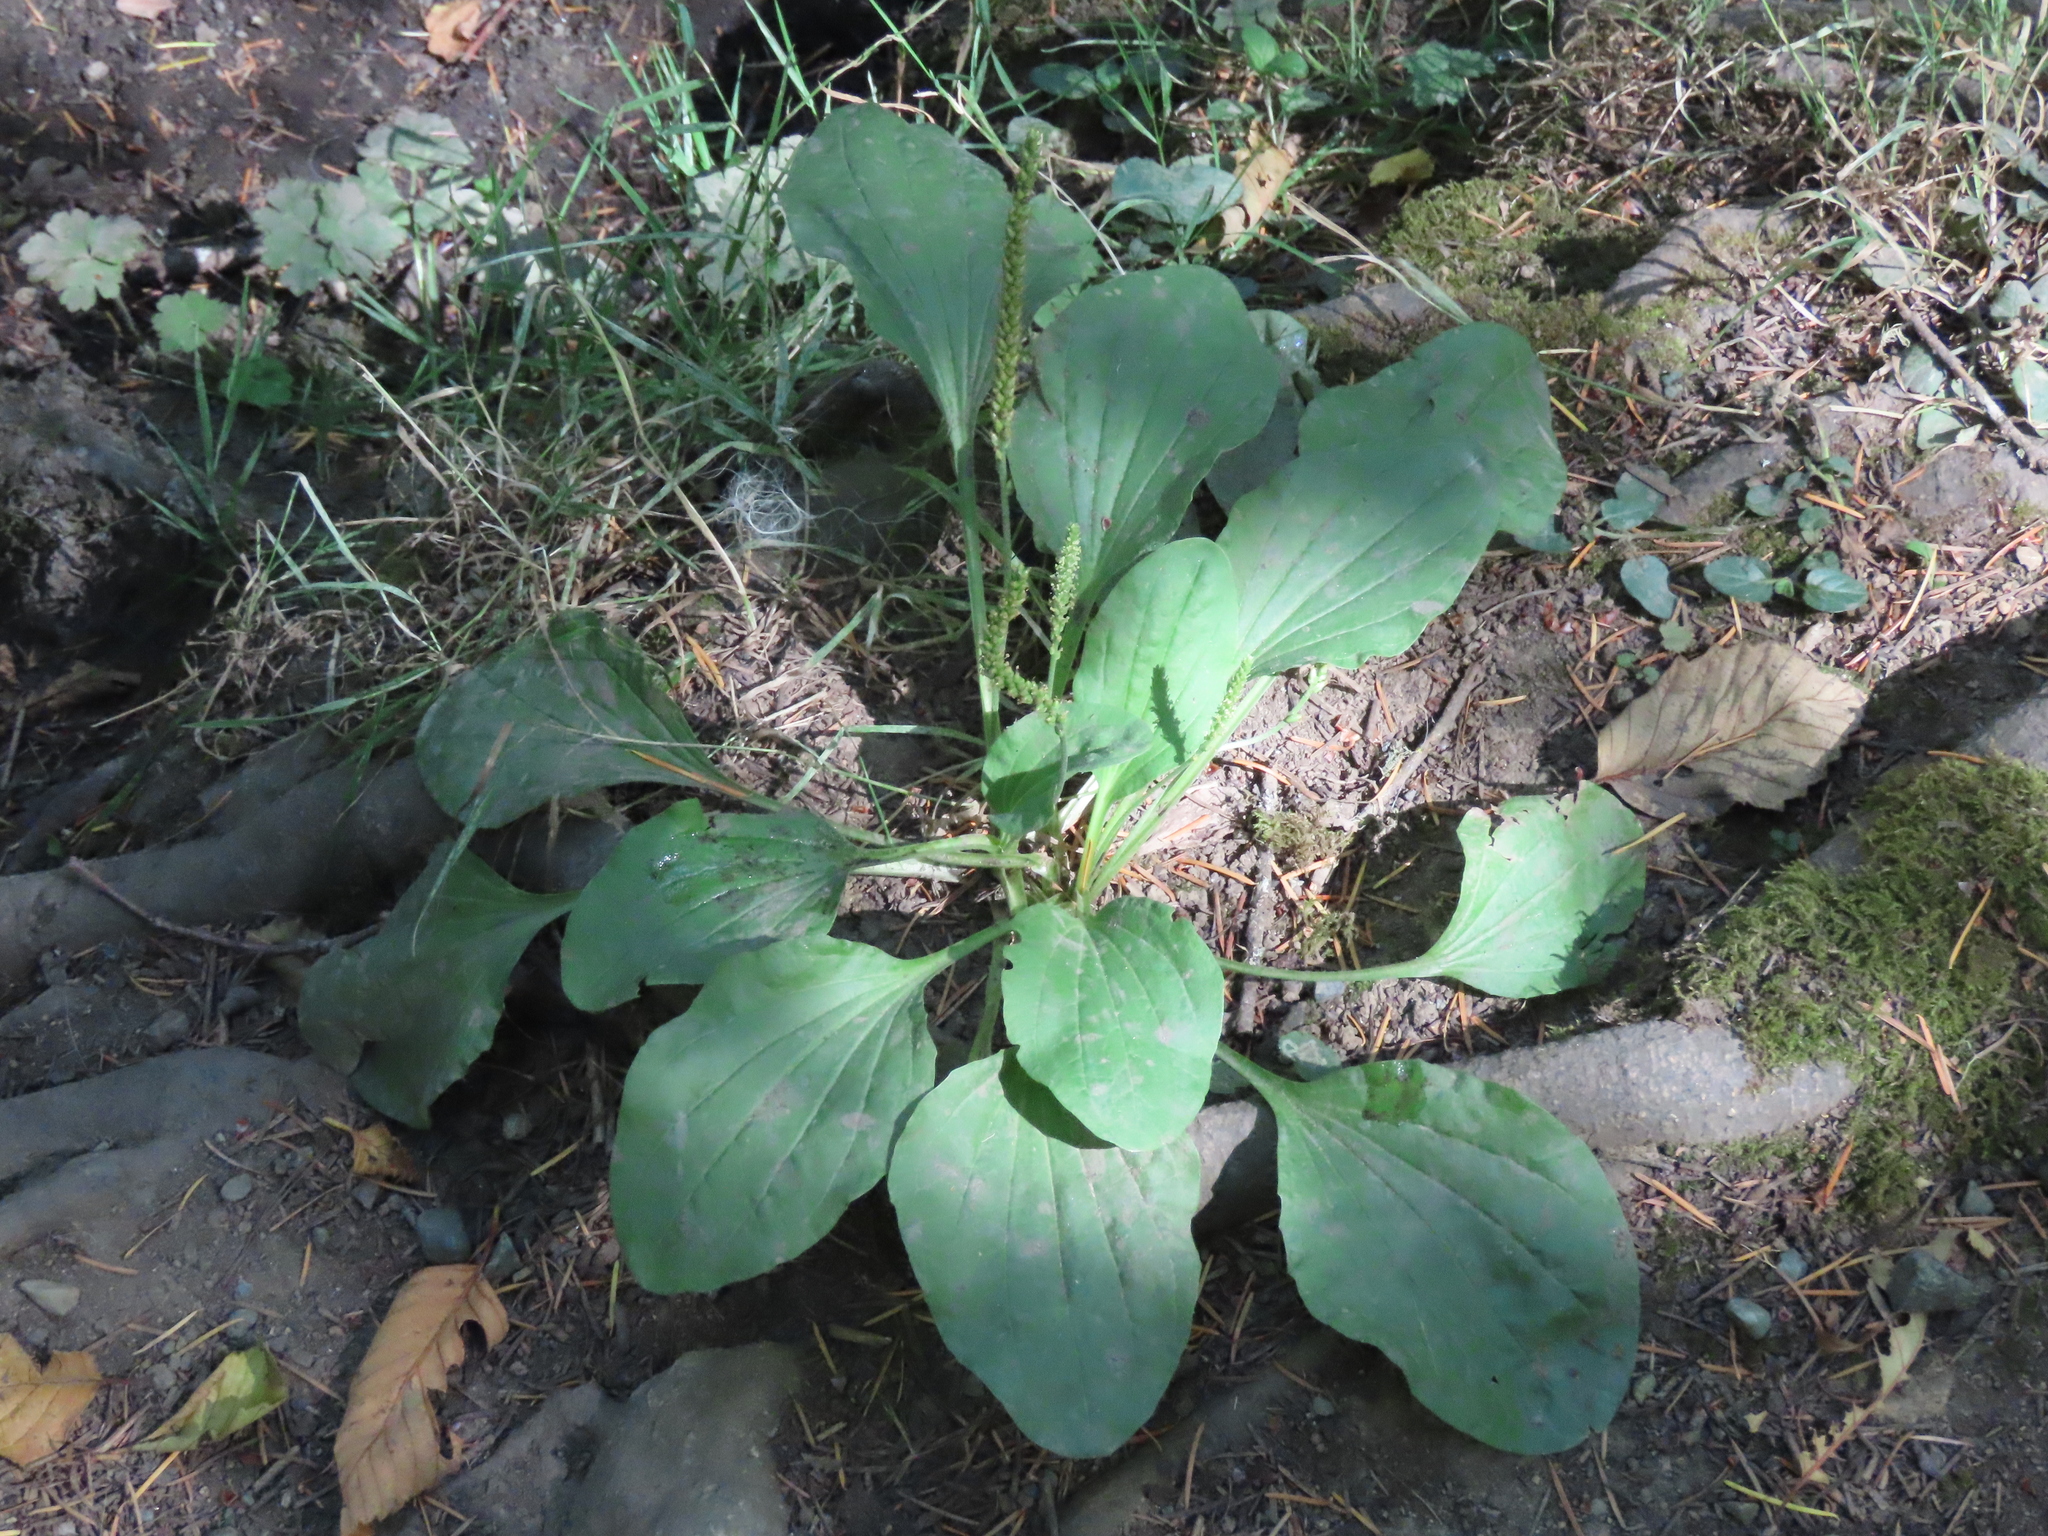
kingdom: Plantae
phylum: Tracheophyta
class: Magnoliopsida
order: Lamiales
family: Plantaginaceae
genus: Plantago
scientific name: Plantago major
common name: Common plantain
